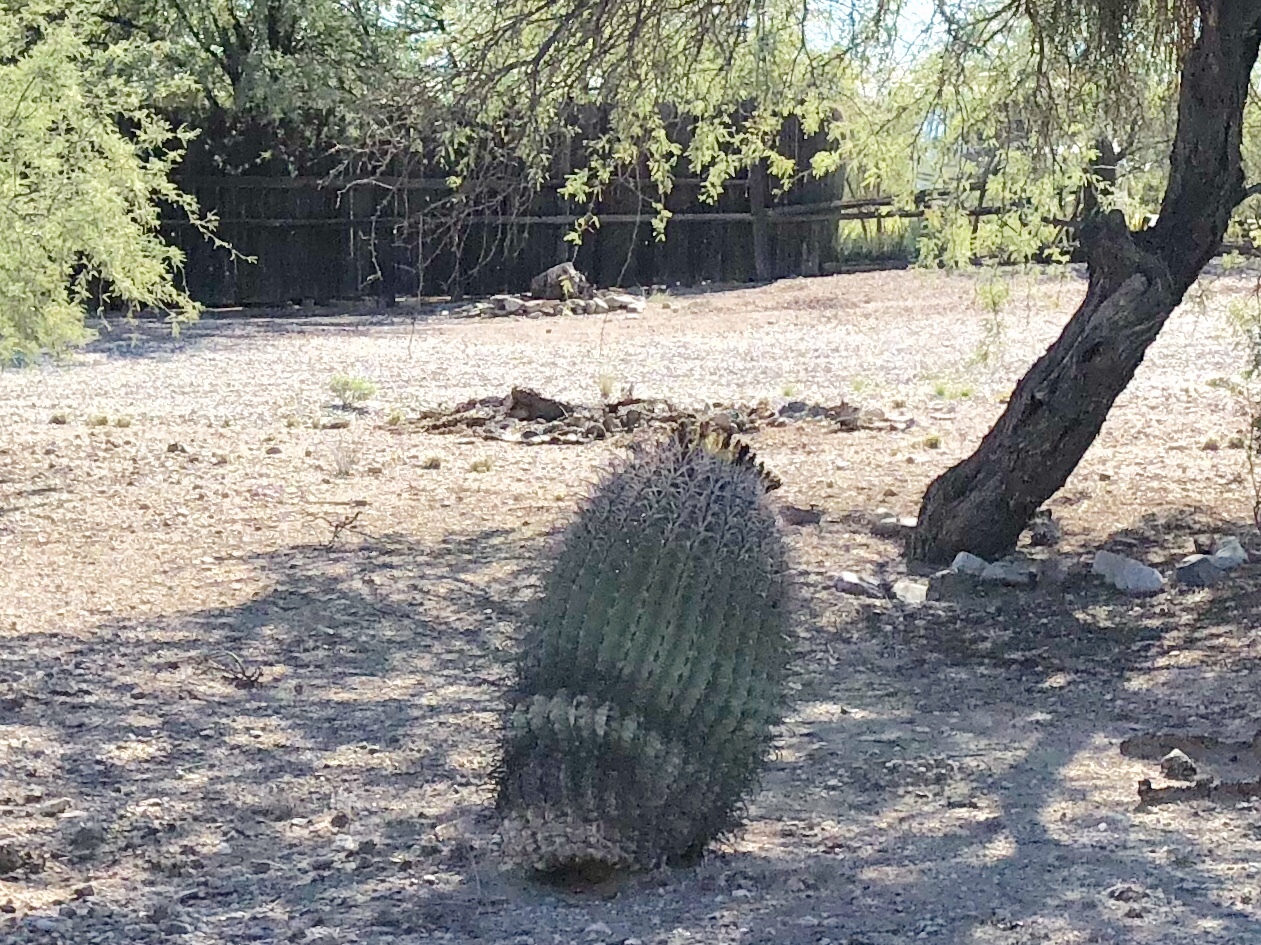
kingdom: Plantae
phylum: Tracheophyta
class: Magnoliopsida
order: Caryophyllales
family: Cactaceae
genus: Ferocactus
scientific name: Ferocactus wislizeni
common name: Candy barrel cactus
